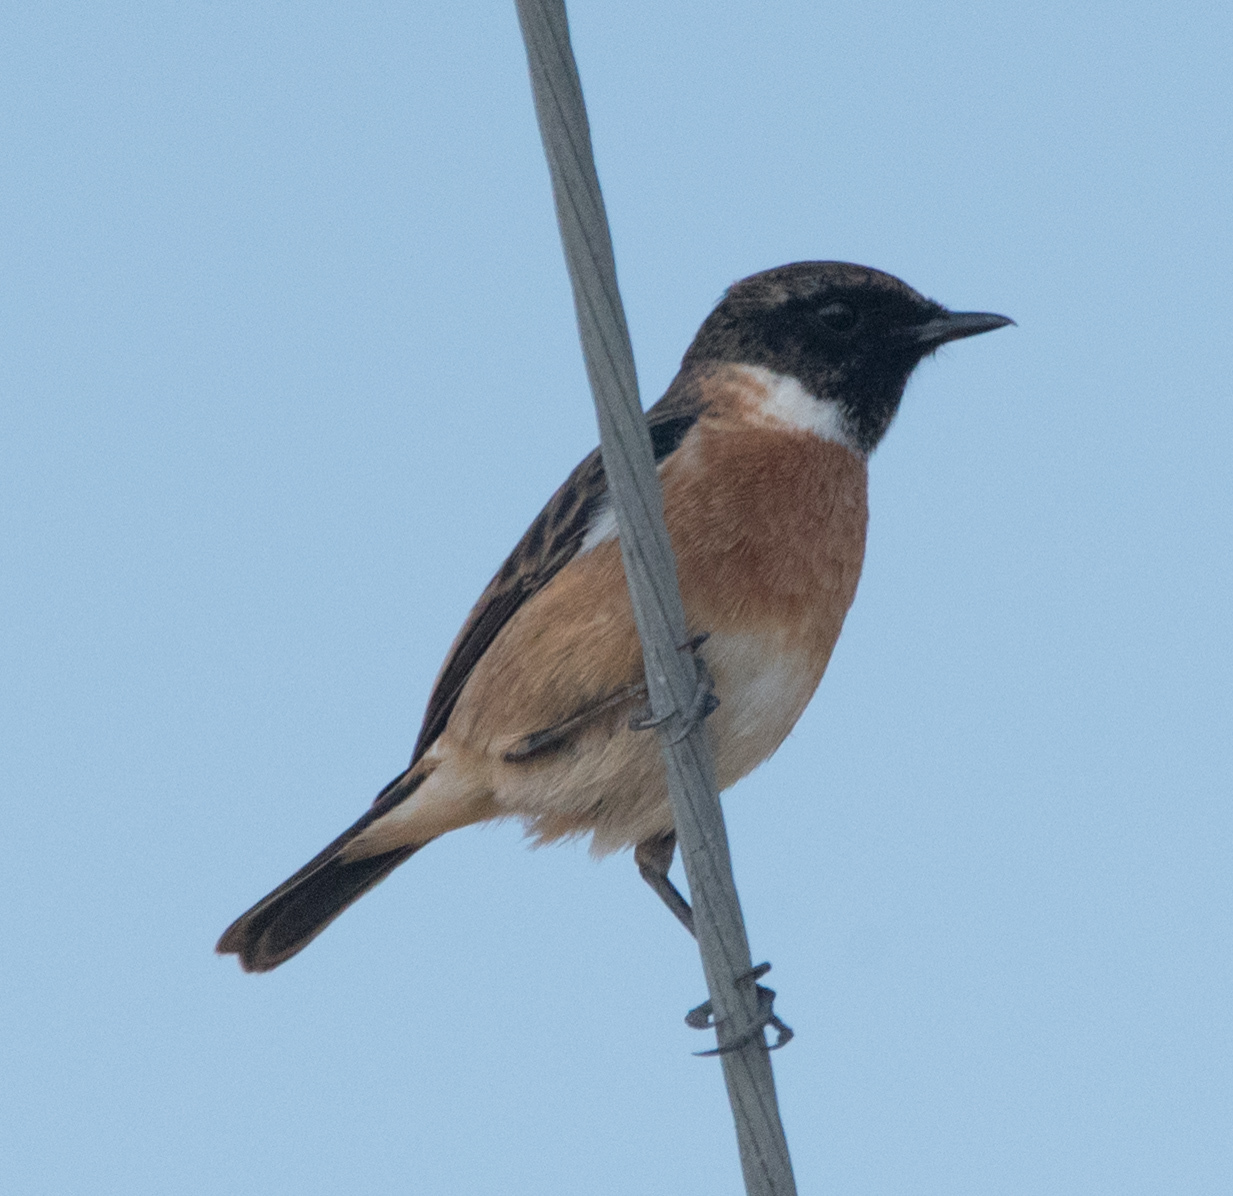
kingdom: Animalia
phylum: Chordata
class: Aves
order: Passeriformes
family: Muscicapidae
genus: Saxicola
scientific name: Saxicola rubicola
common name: European stonechat
